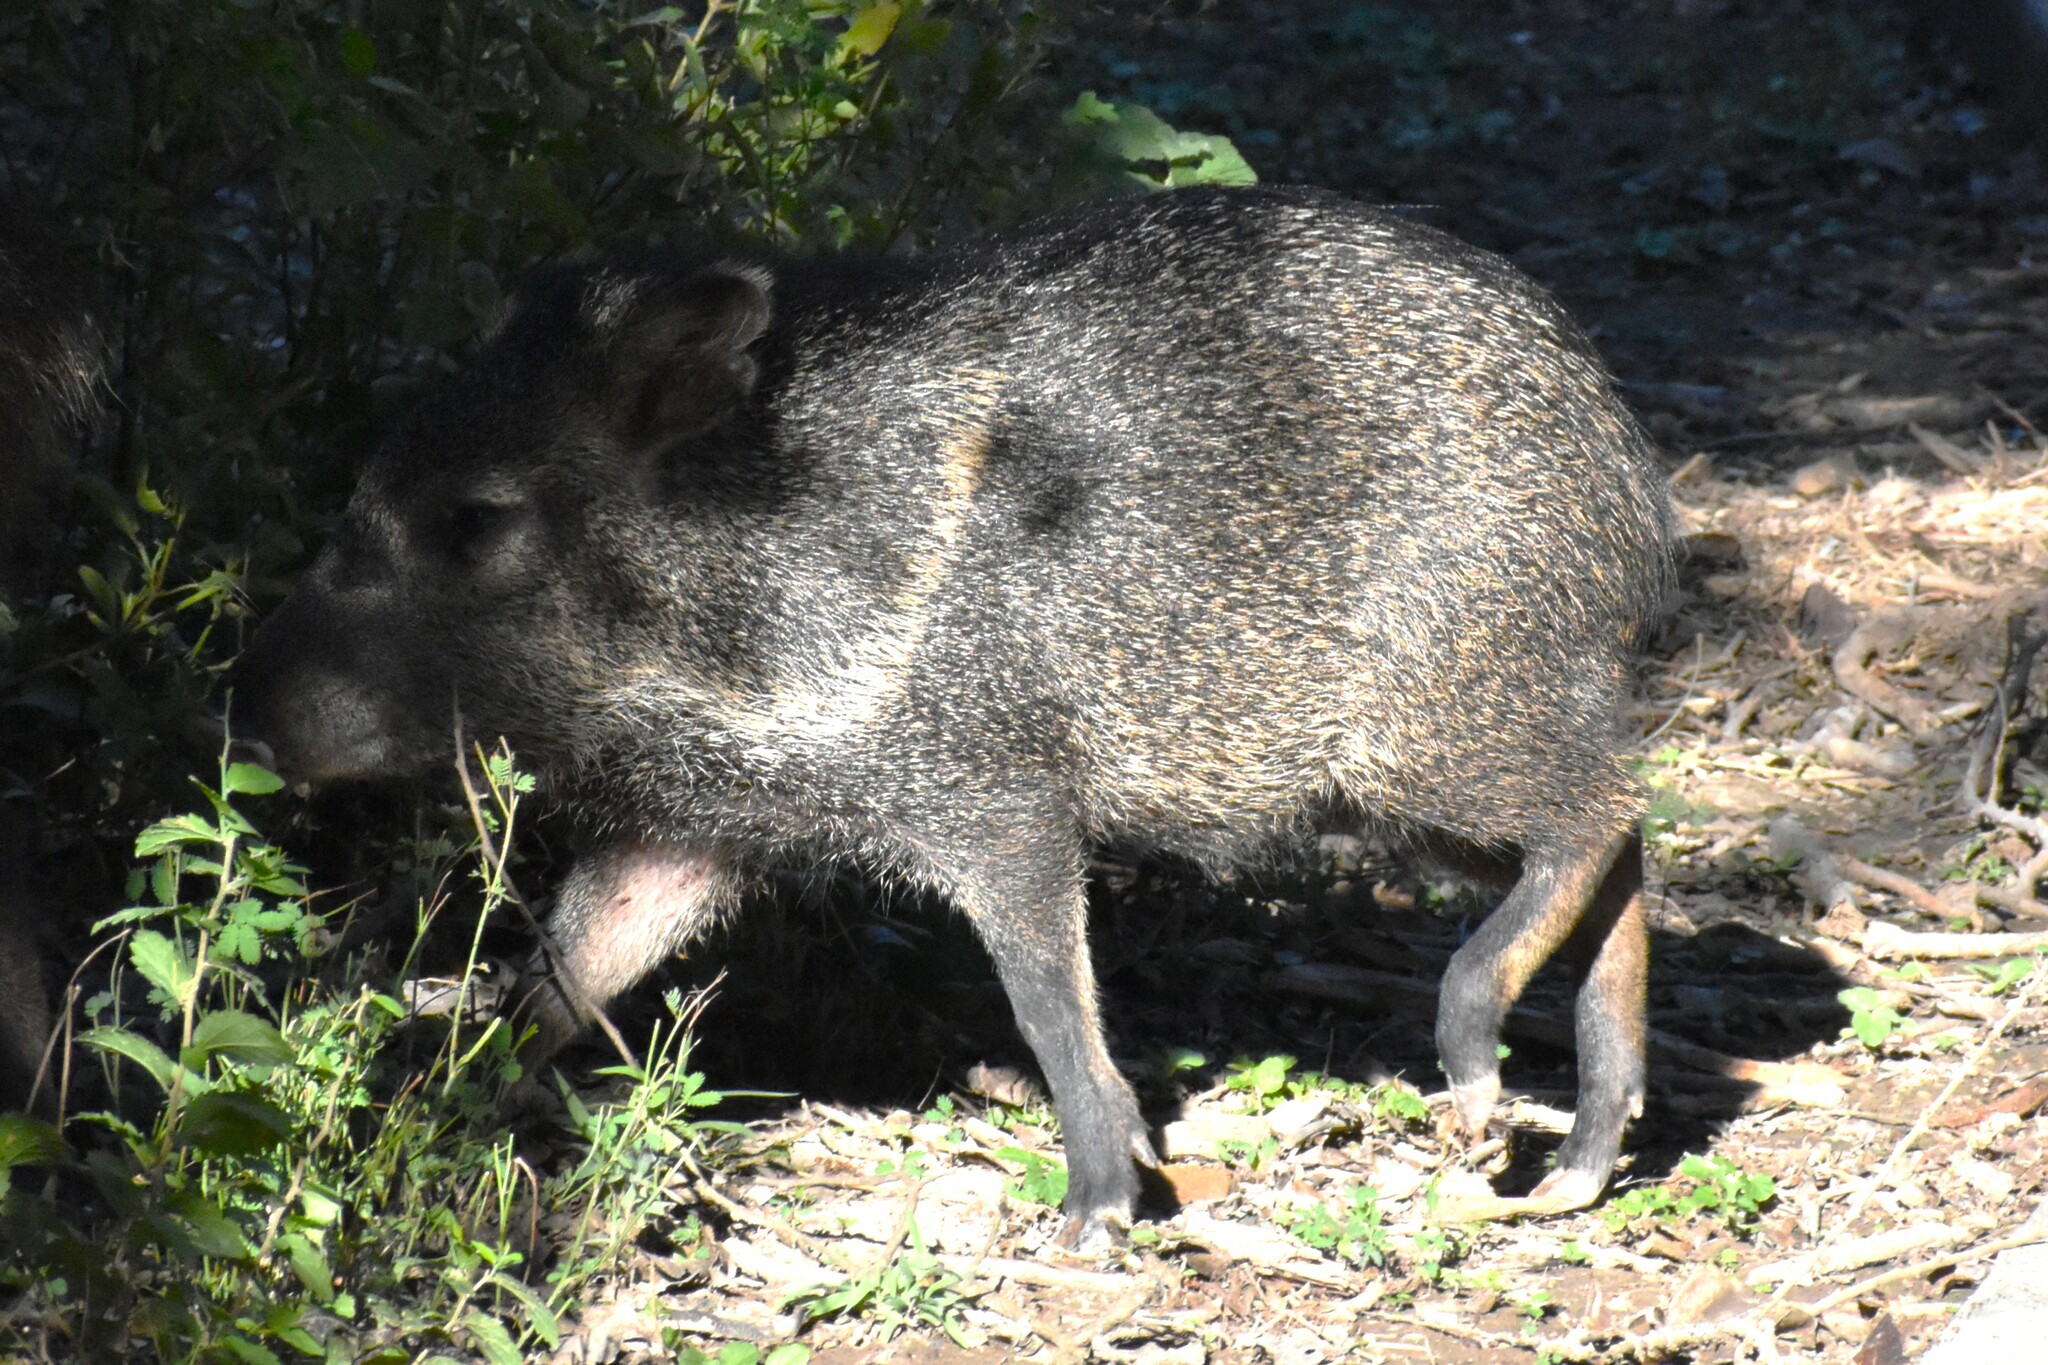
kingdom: Animalia
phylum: Chordata
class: Mammalia
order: Artiodactyla
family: Tayassuidae
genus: Pecari
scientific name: Pecari tajacu
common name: Collared peccary
